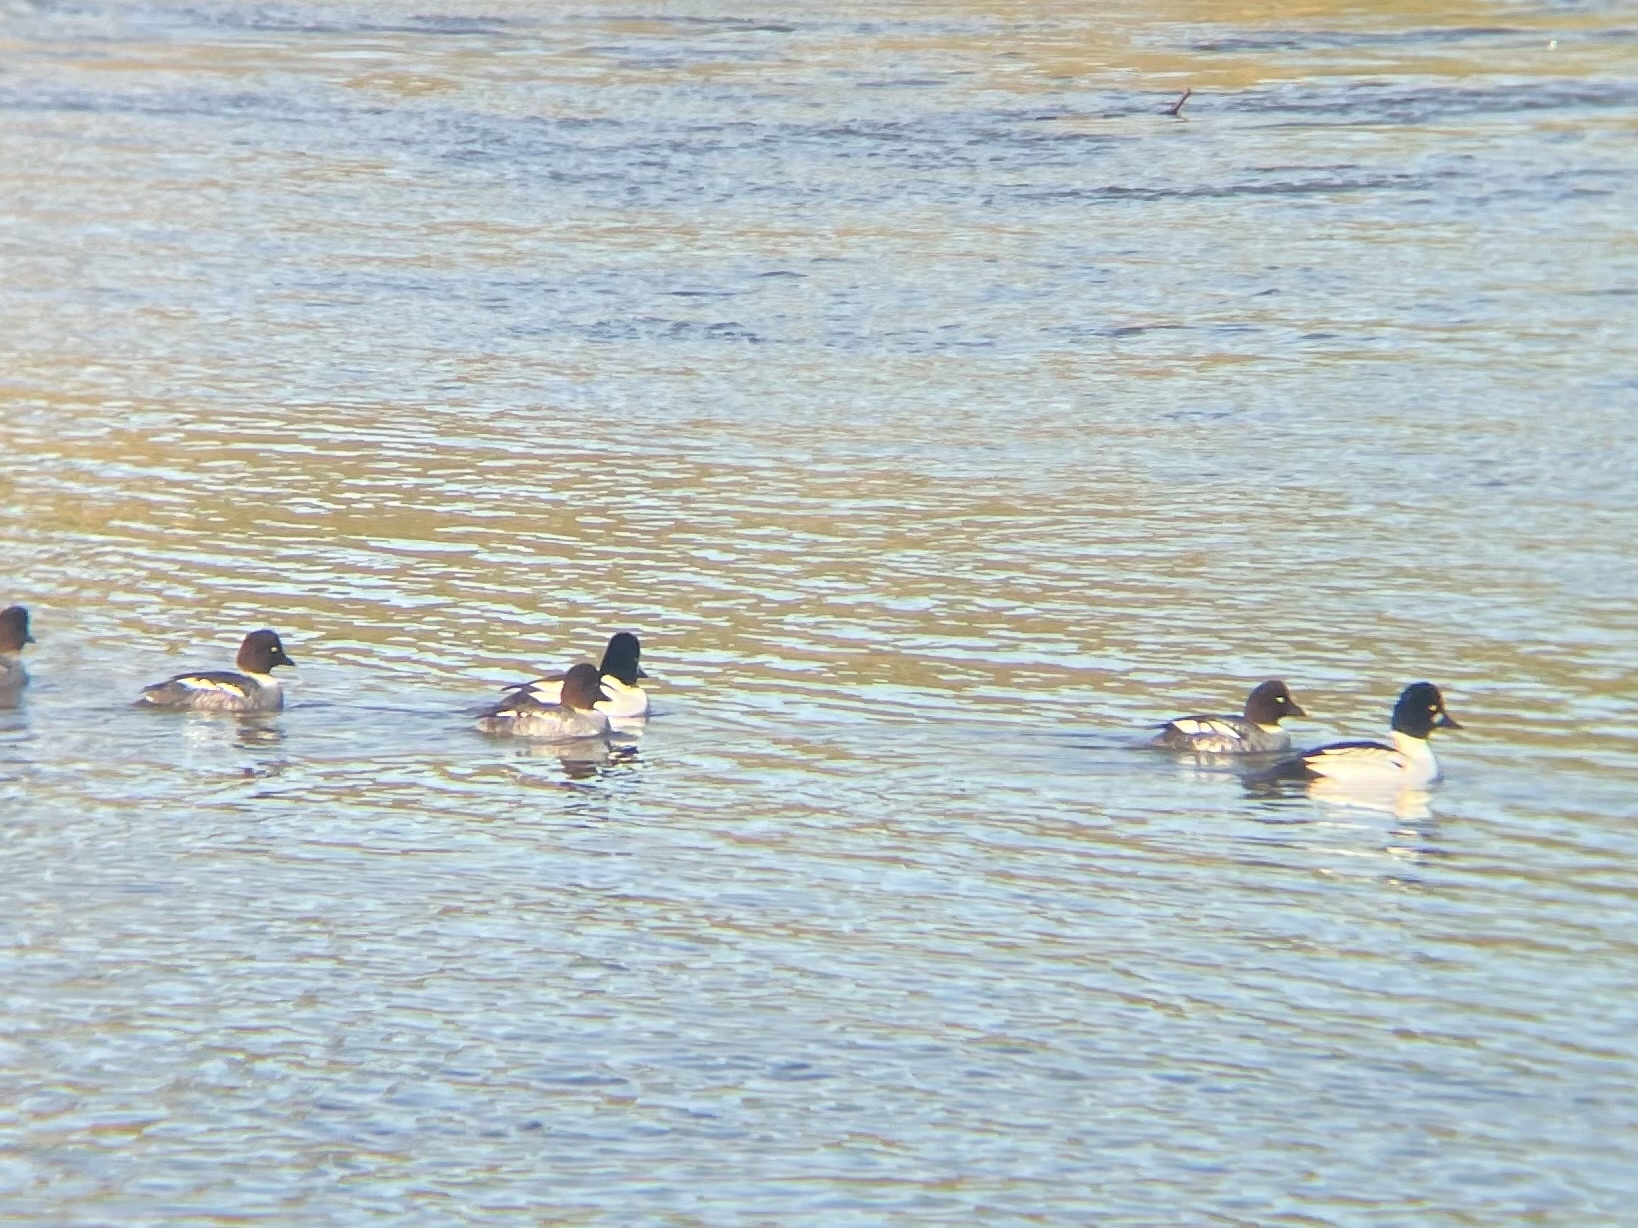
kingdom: Animalia
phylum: Chordata
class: Aves
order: Anseriformes
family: Anatidae
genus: Bucephala
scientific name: Bucephala clangula
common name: Common goldeneye
